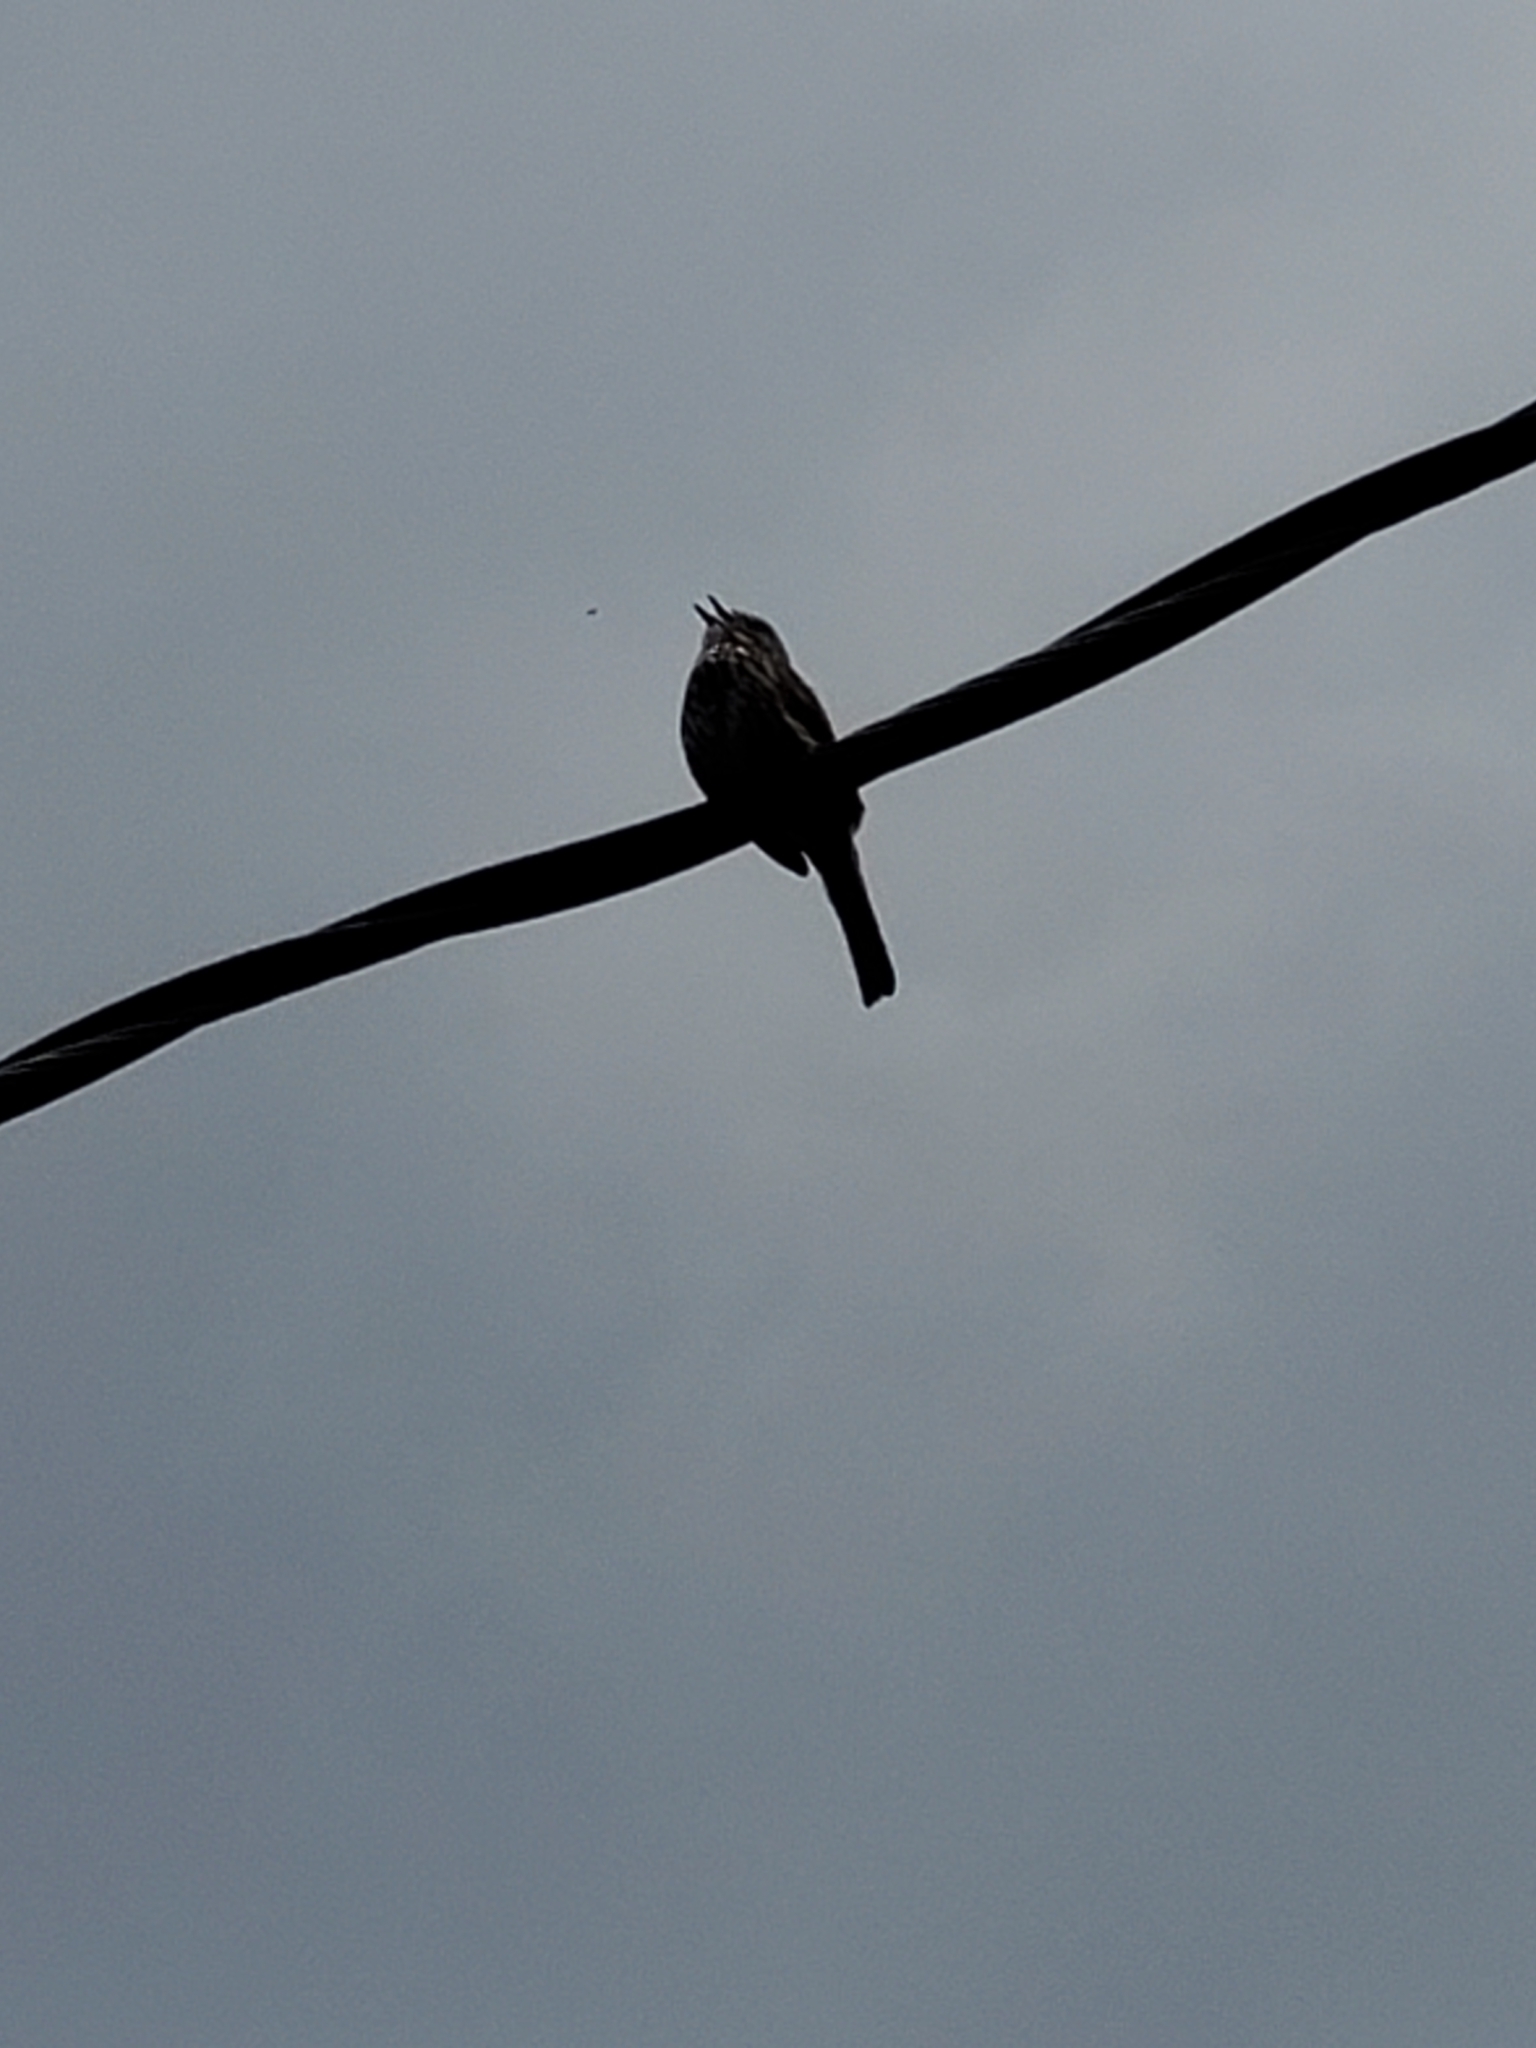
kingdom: Animalia
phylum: Chordata
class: Aves
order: Passeriformes
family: Passerellidae
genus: Melospiza
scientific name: Melospiza melodia
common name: Song sparrow
